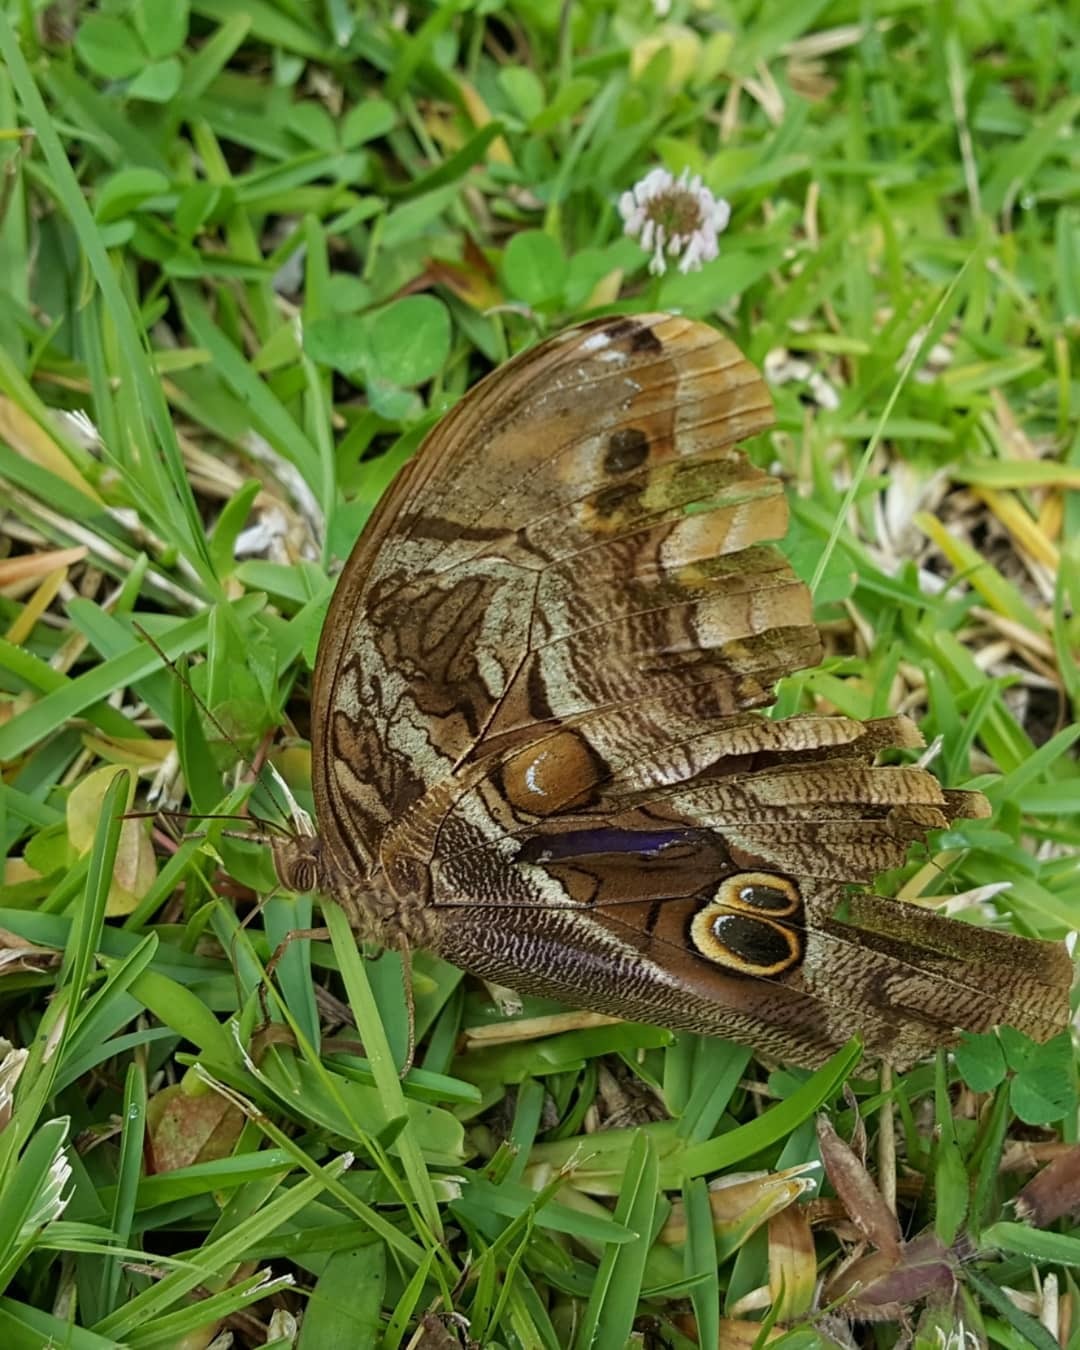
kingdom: Animalia
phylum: Arthropoda
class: Insecta
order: Lepidoptera
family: Nymphalidae
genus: Eryphanis
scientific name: Eryphanis aesacus
